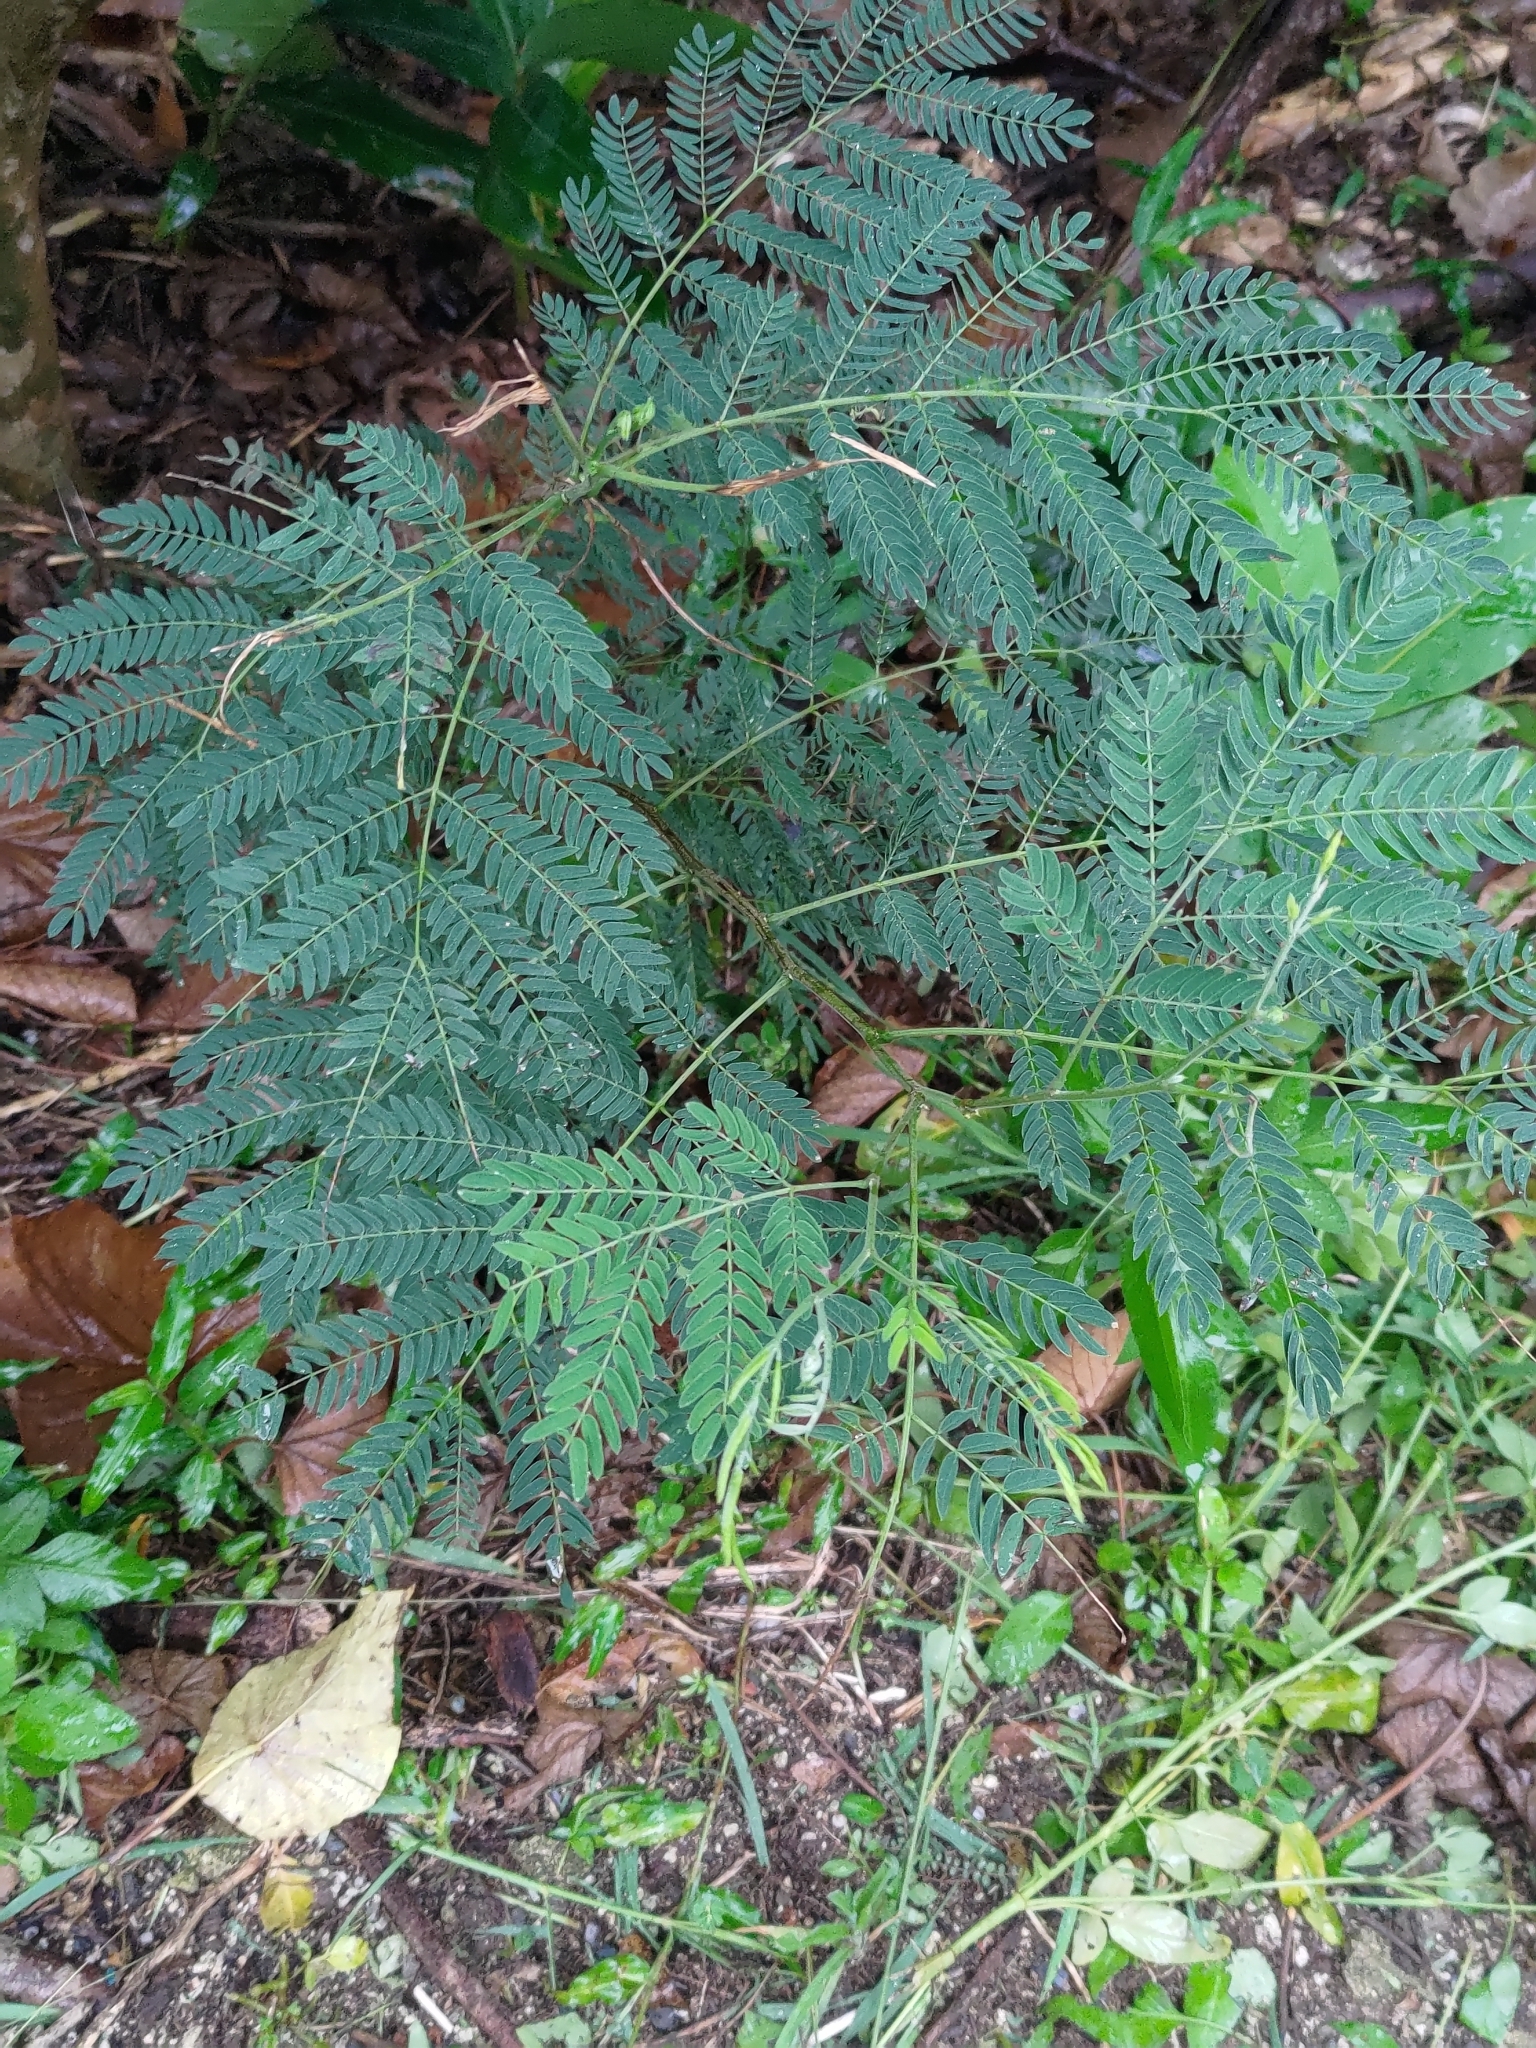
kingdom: Plantae
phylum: Tracheophyta
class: Magnoliopsida
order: Fabales
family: Fabaceae
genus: Leucaena
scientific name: Leucaena leucocephala
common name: White leadtree
